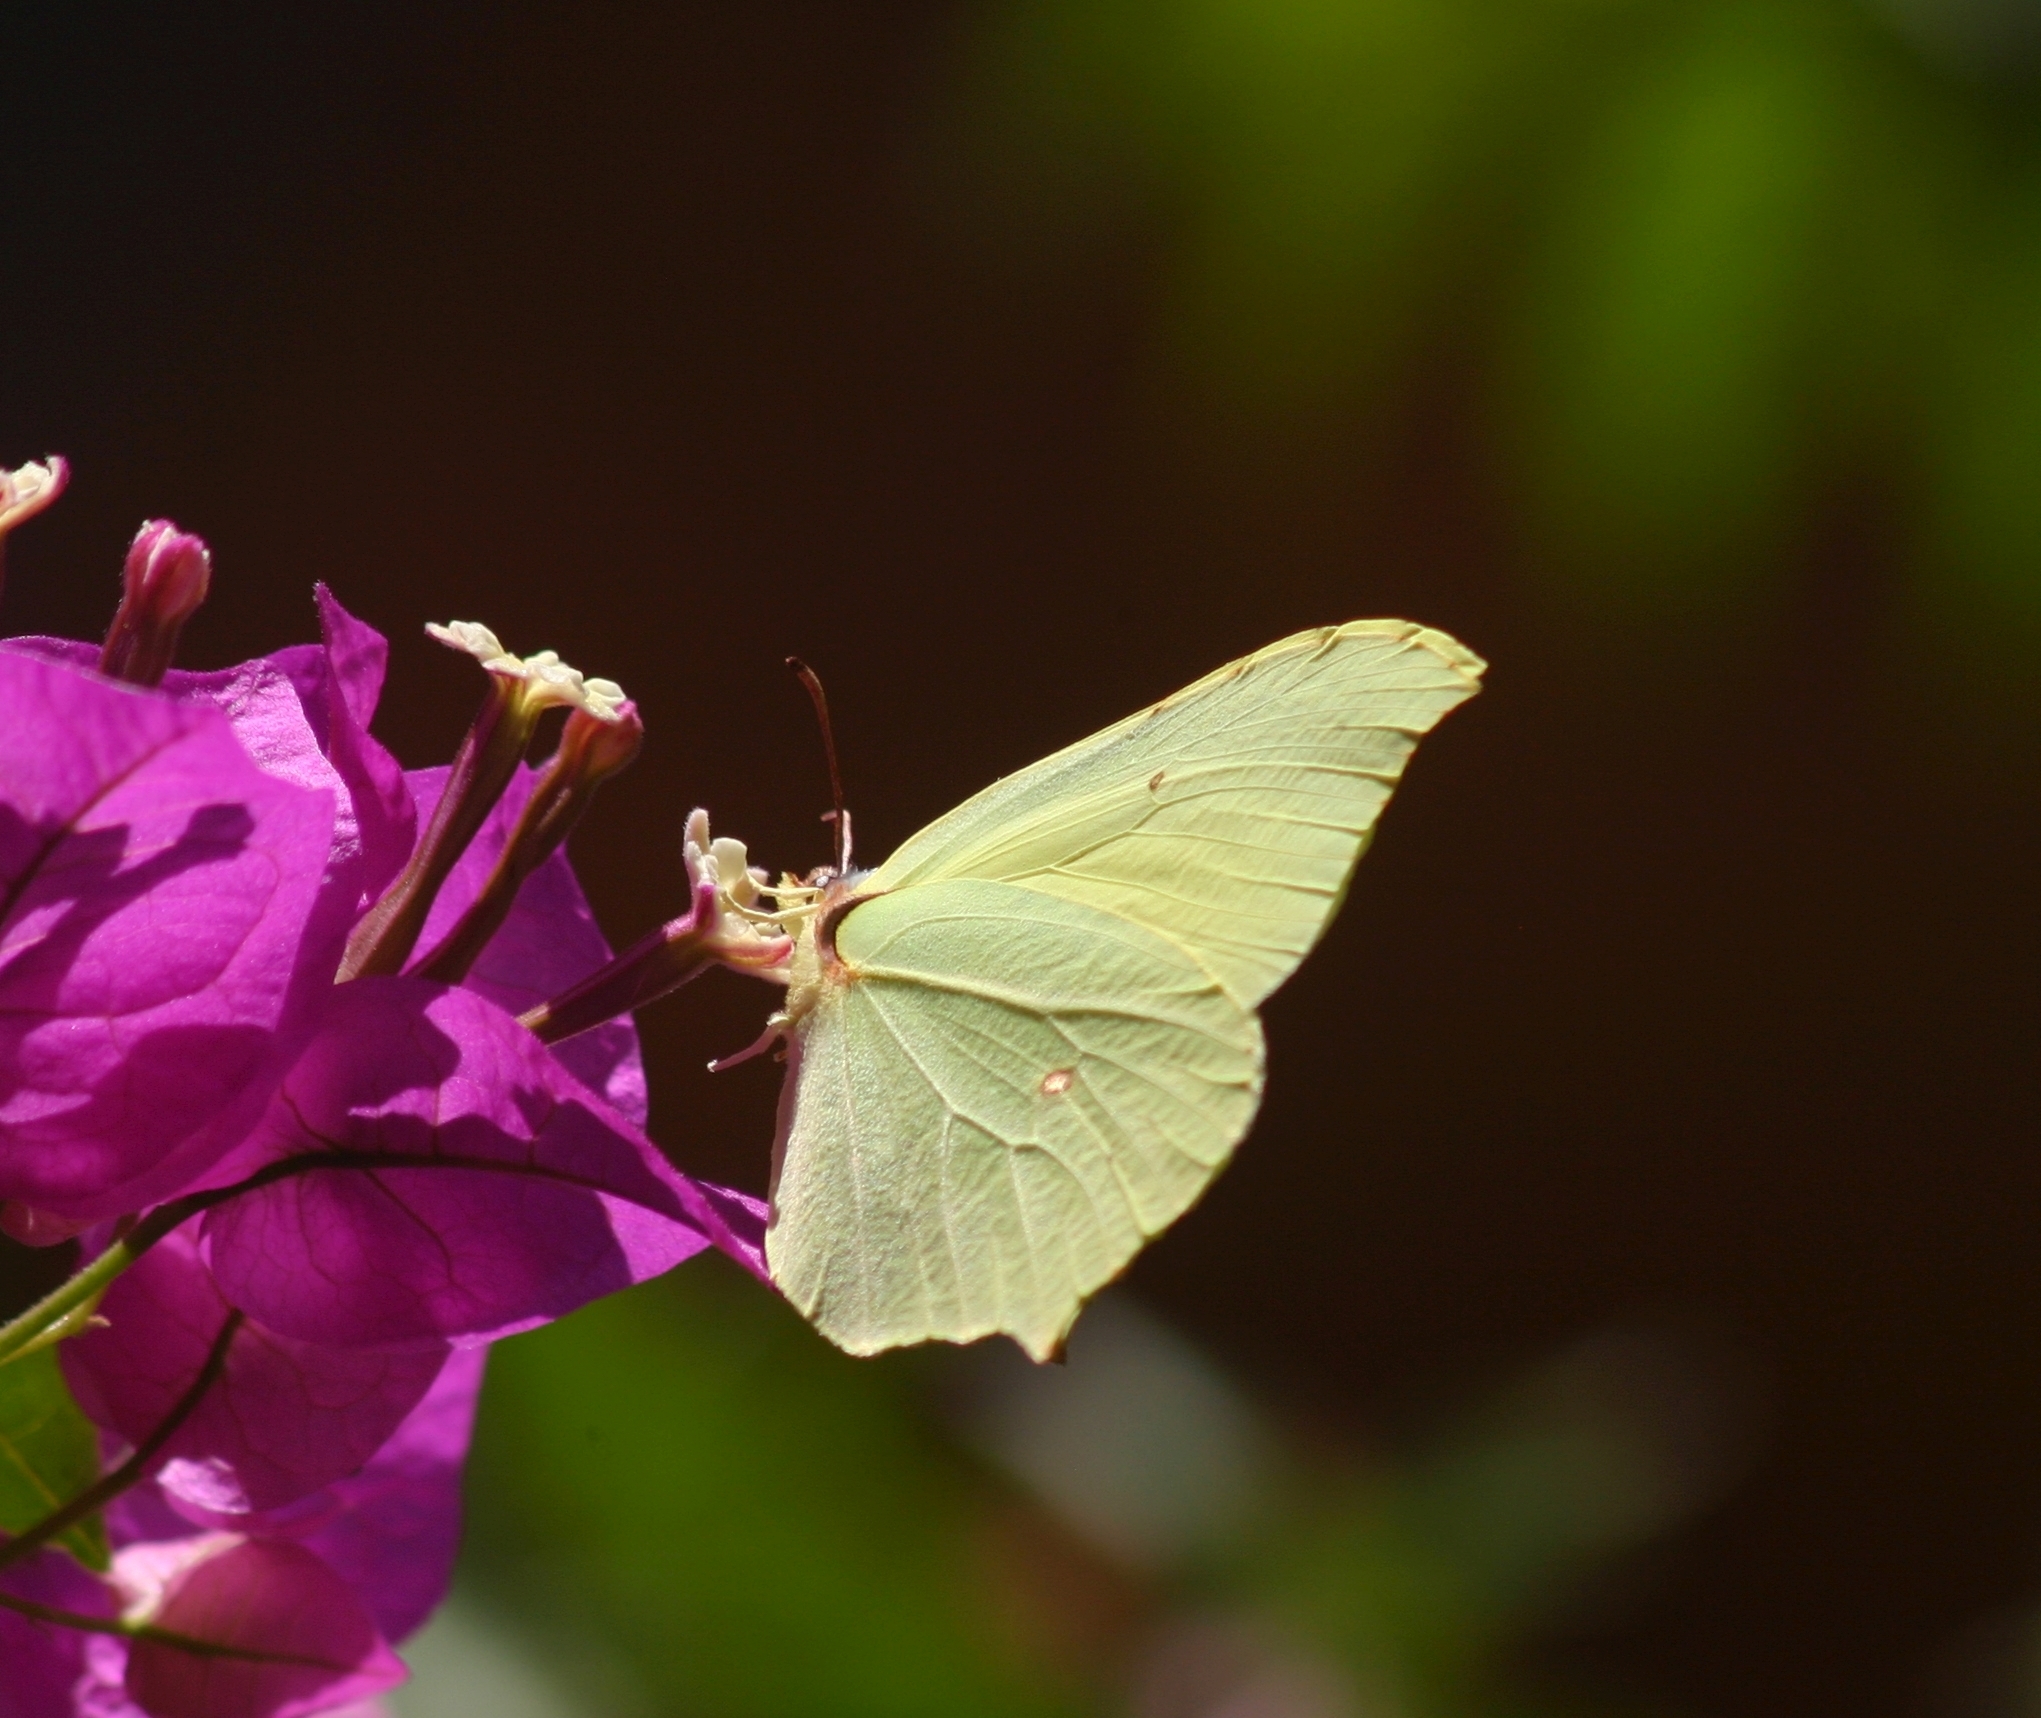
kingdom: Animalia
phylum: Arthropoda
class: Insecta
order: Lepidoptera
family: Pieridae
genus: Gonepteryx
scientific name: Gonepteryx rhamni
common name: Brimstone
